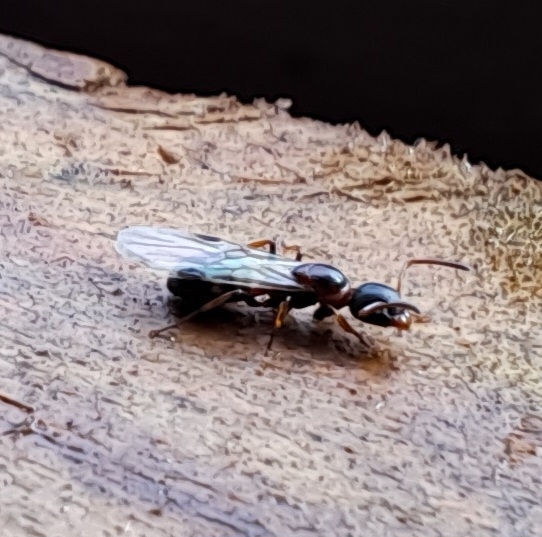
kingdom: Animalia
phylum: Arthropoda
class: Insecta
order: Hymenoptera
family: Formicidae
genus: Dolichoderus
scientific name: Dolichoderus quadripunctatus
